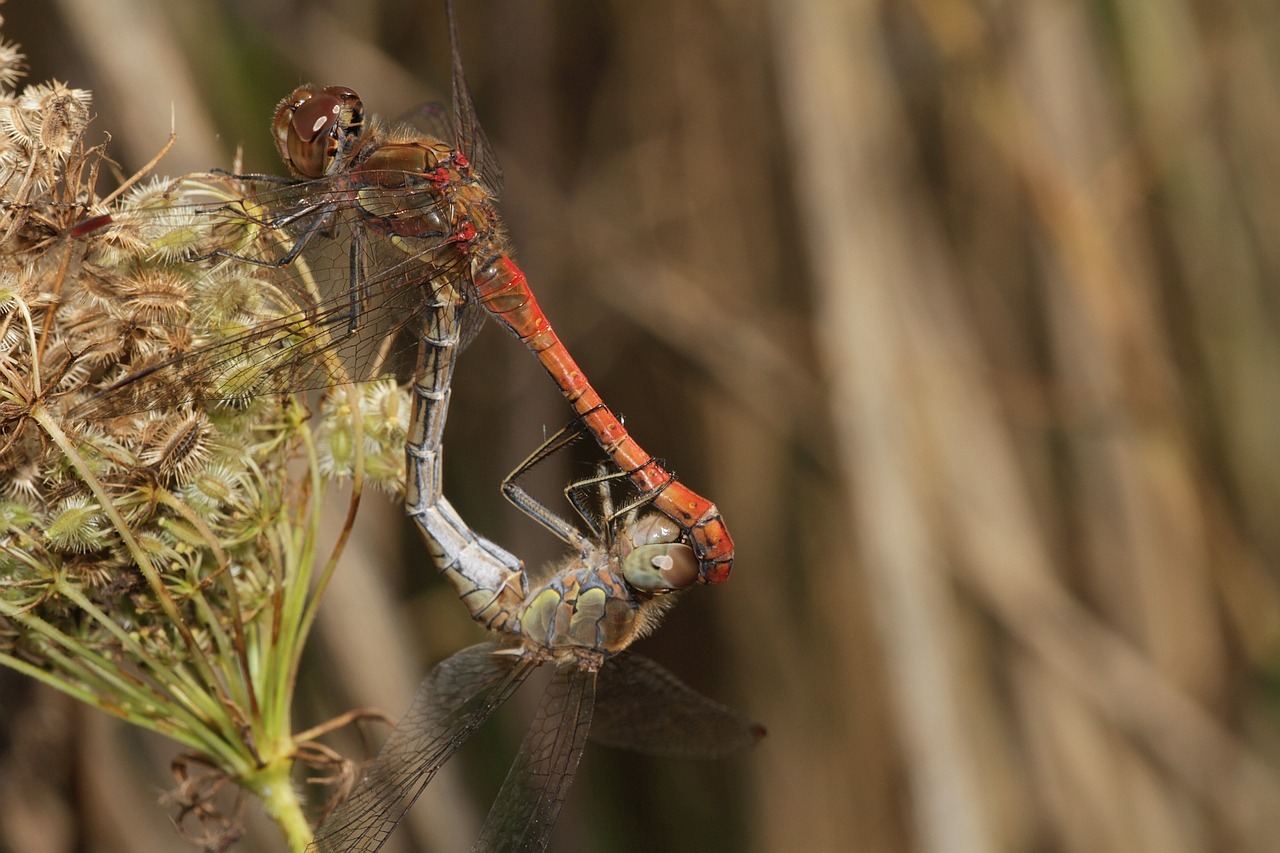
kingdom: Animalia
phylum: Arthropoda
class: Insecta
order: Odonata
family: Libellulidae
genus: Sympetrum
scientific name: Sympetrum striolatum
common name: Common darter
